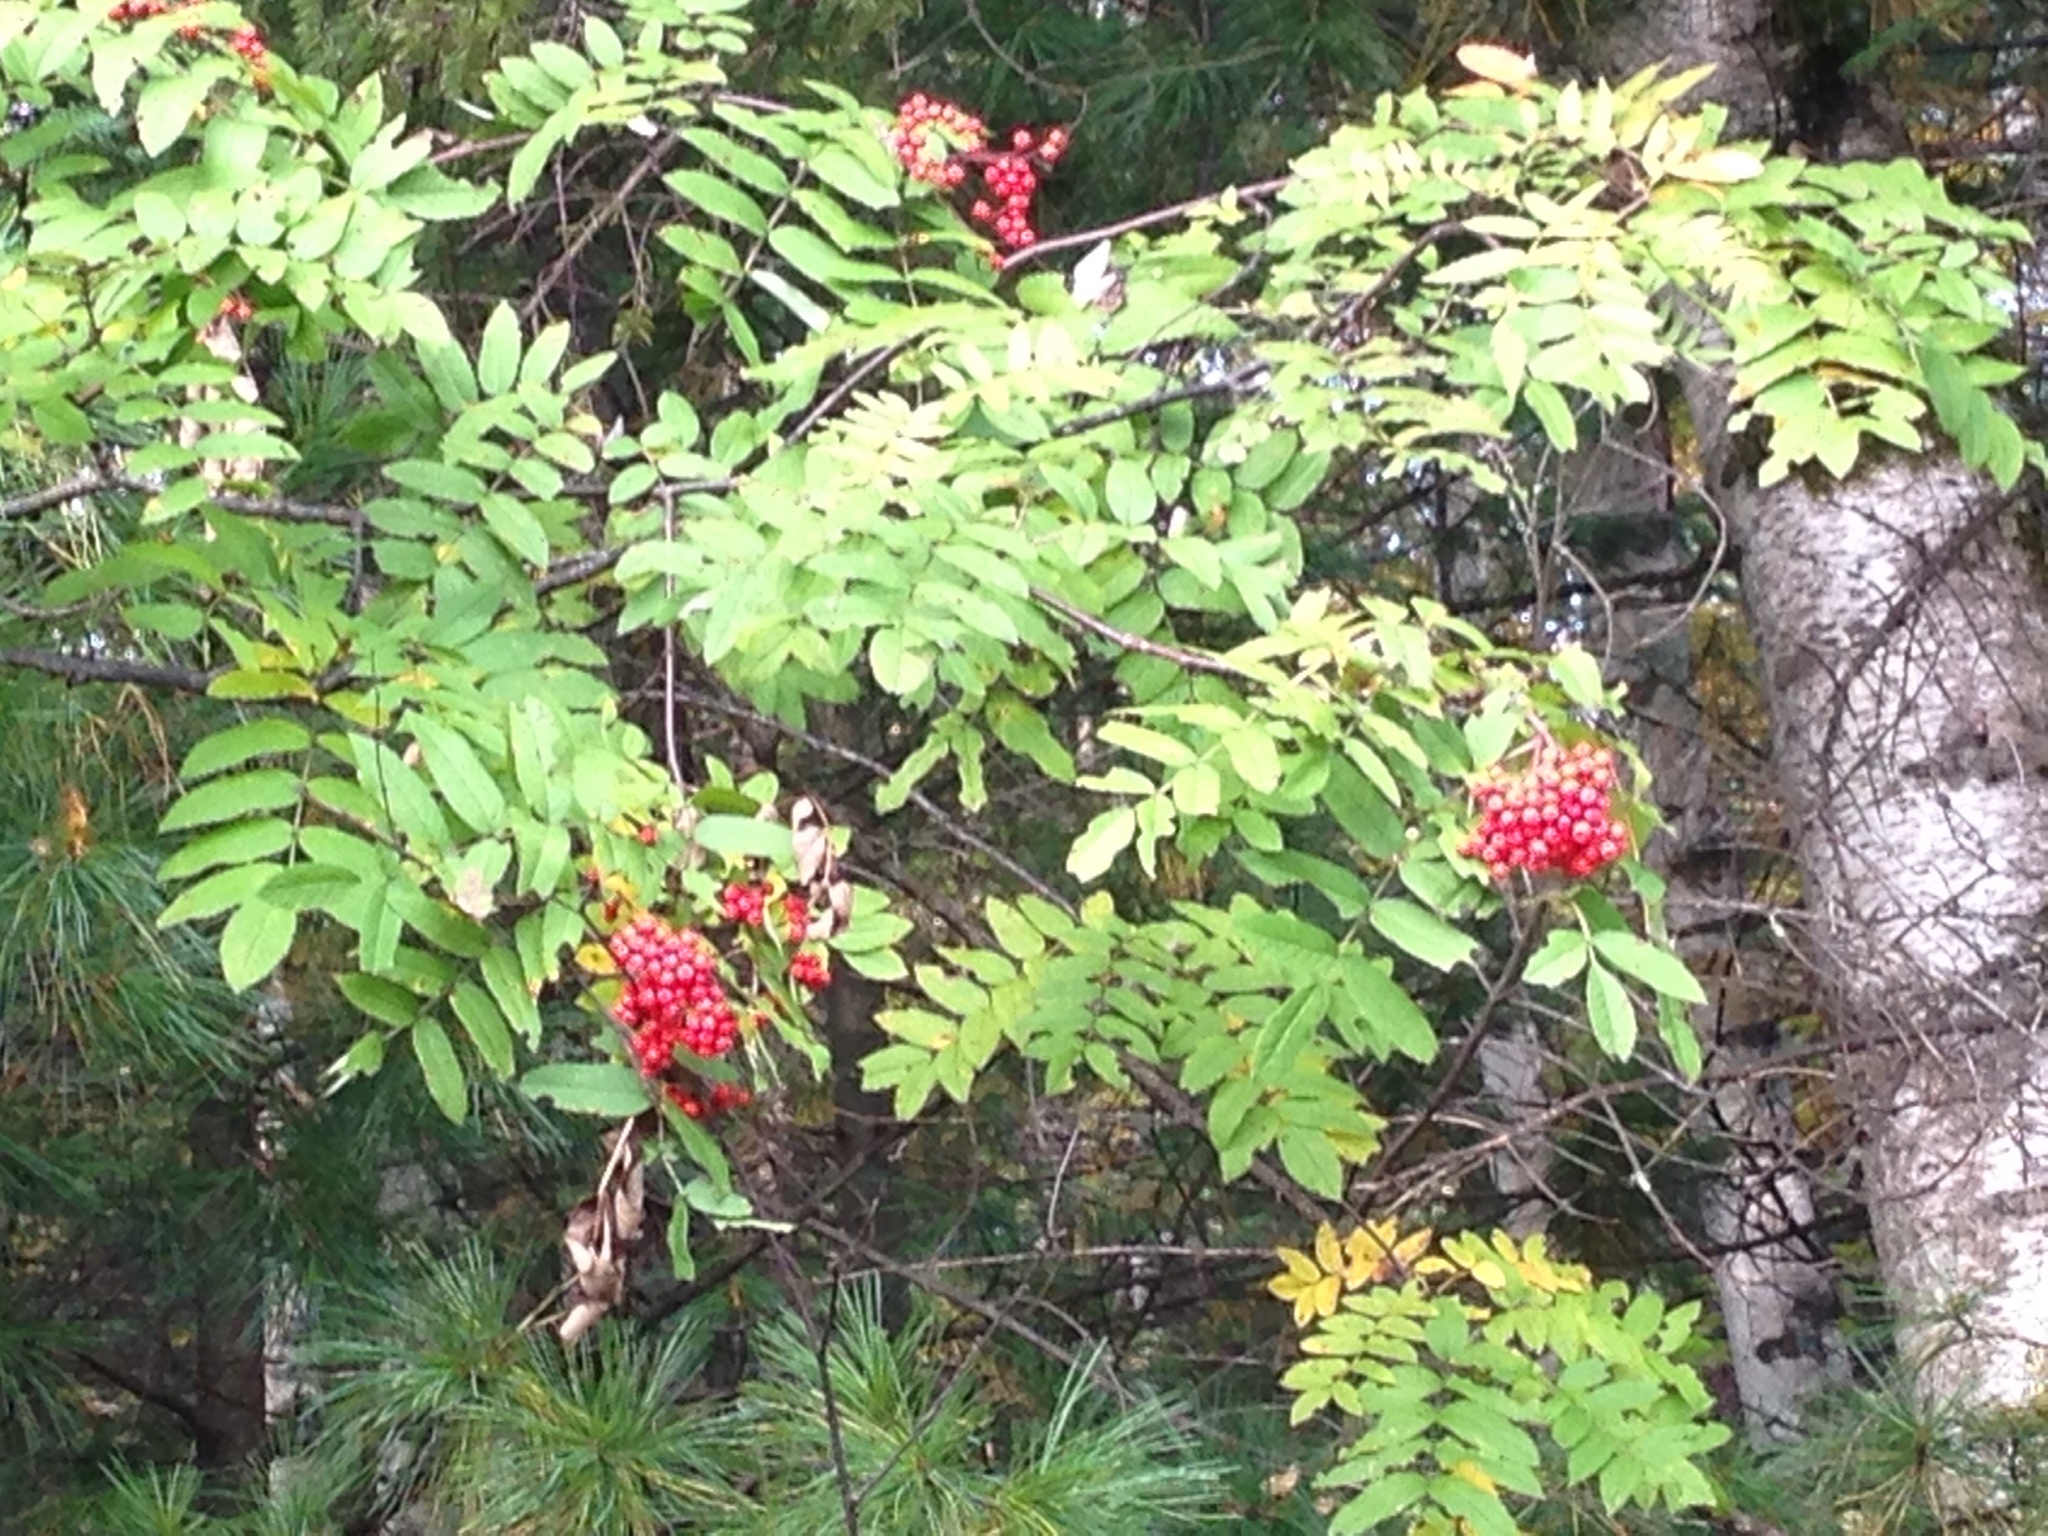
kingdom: Plantae
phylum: Tracheophyta
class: Magnoliopsida
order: Rosales
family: Rosaceae
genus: Sorbus
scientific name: Sorbus aucuparia
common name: Rowan
